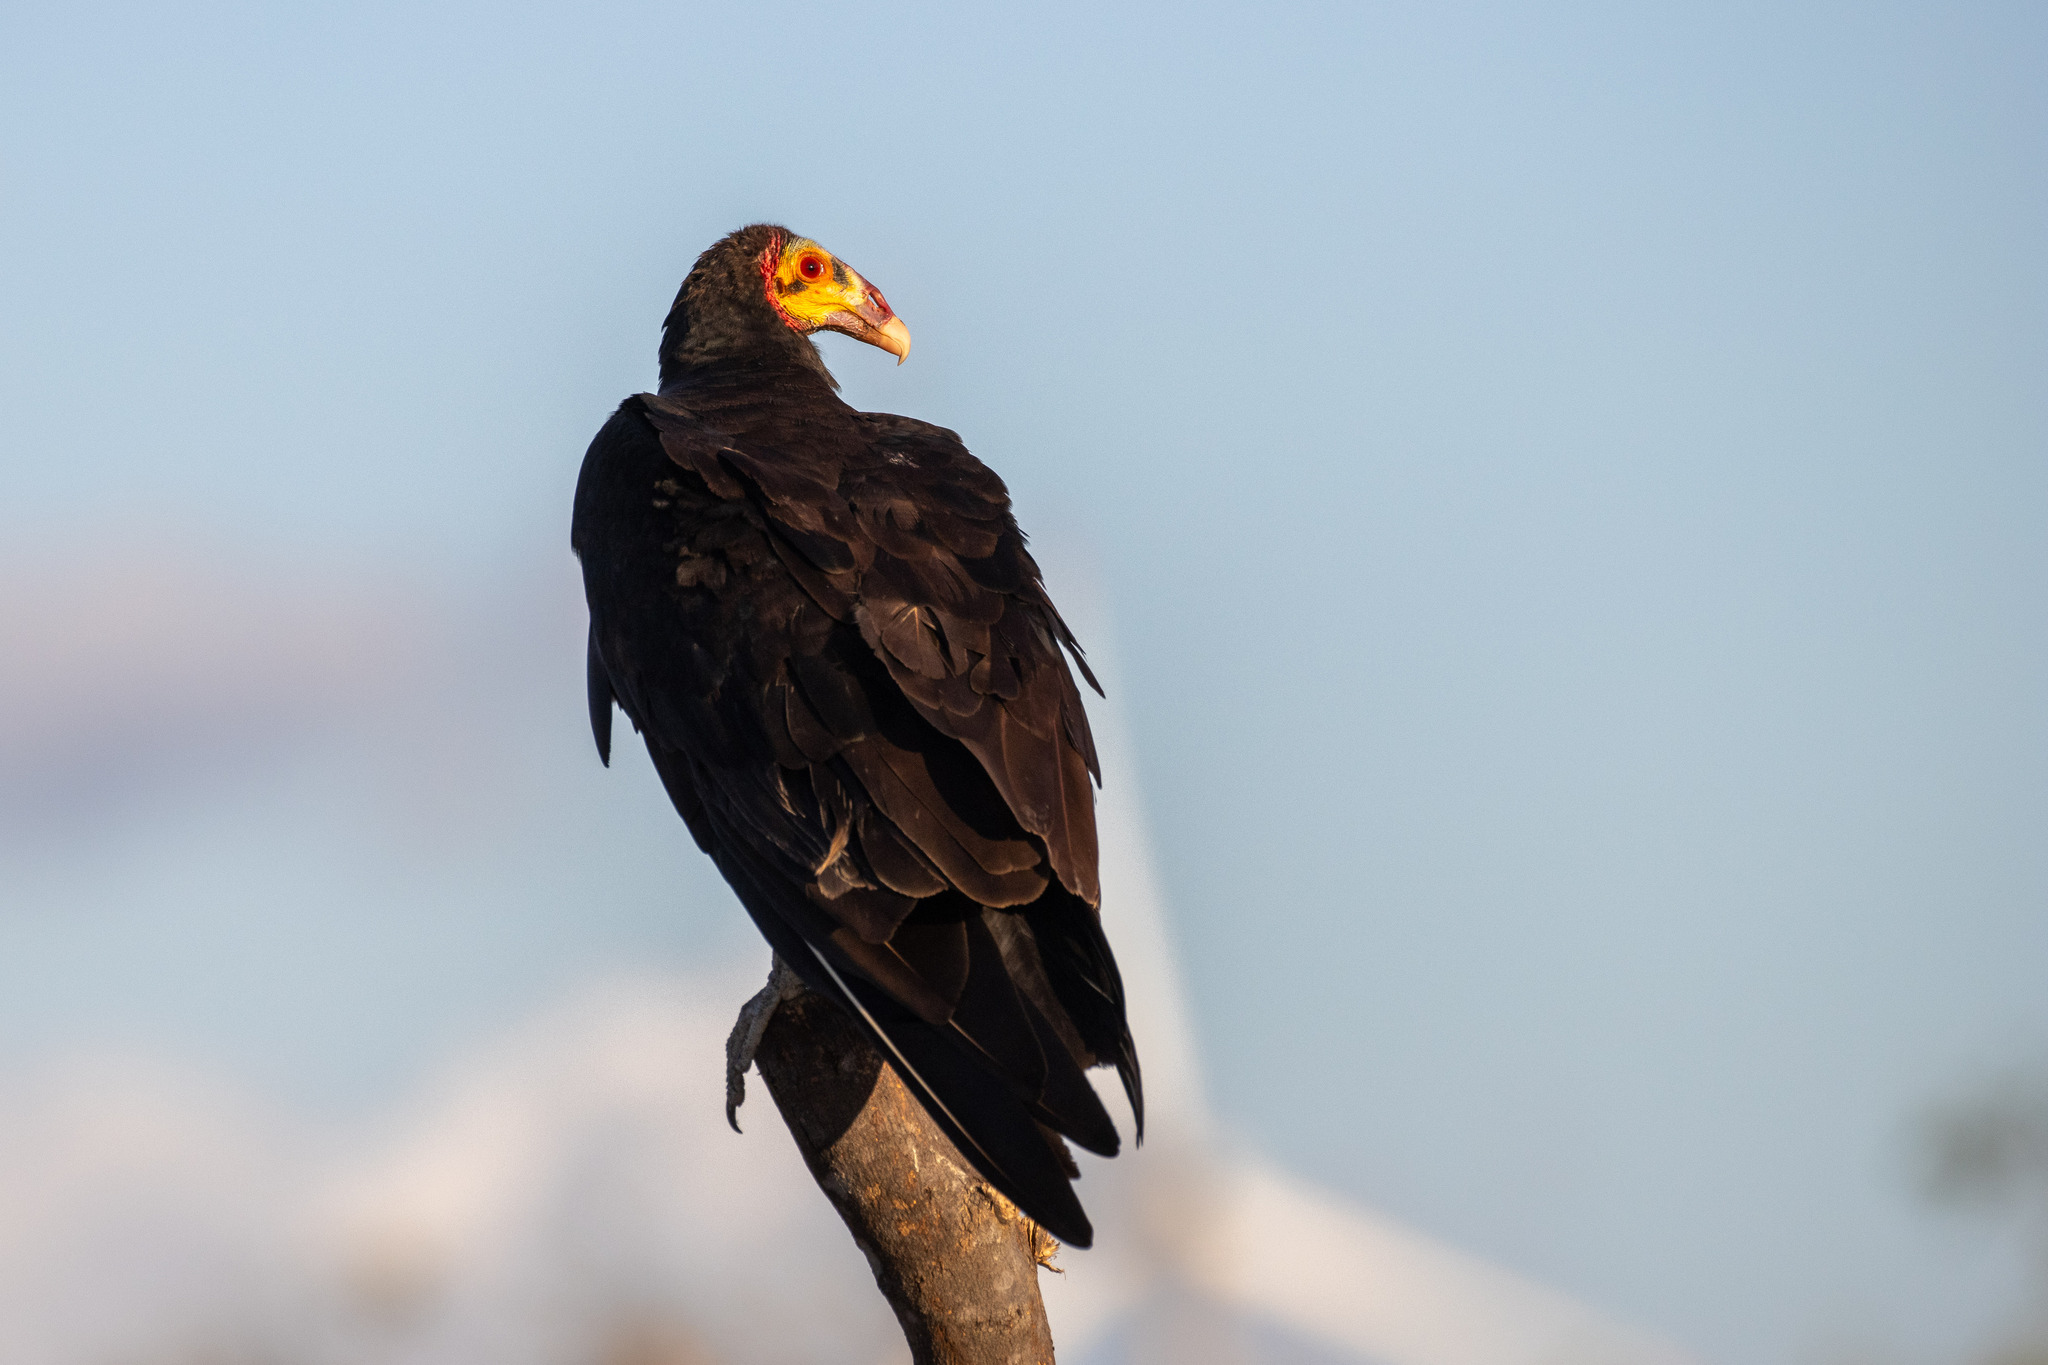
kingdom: Animalia
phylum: Chordata
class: Aves
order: Accipitriformes
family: Cathartidae
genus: Cathartes
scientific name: Cathartes burrovianus
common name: Lesser yellow-headed vulture
